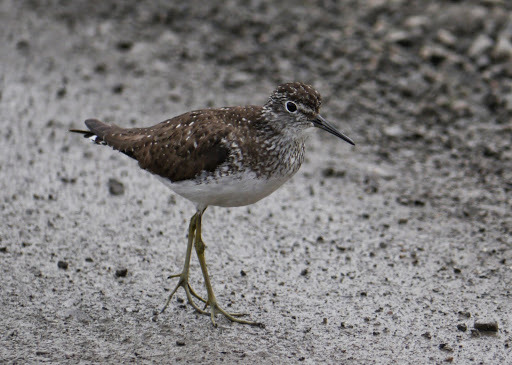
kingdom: Animalia
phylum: Chordata
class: Aves
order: Charadriiformes
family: Scolopacidae
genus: Tringa
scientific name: Tringa solitaria
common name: Solitary sandpiper
